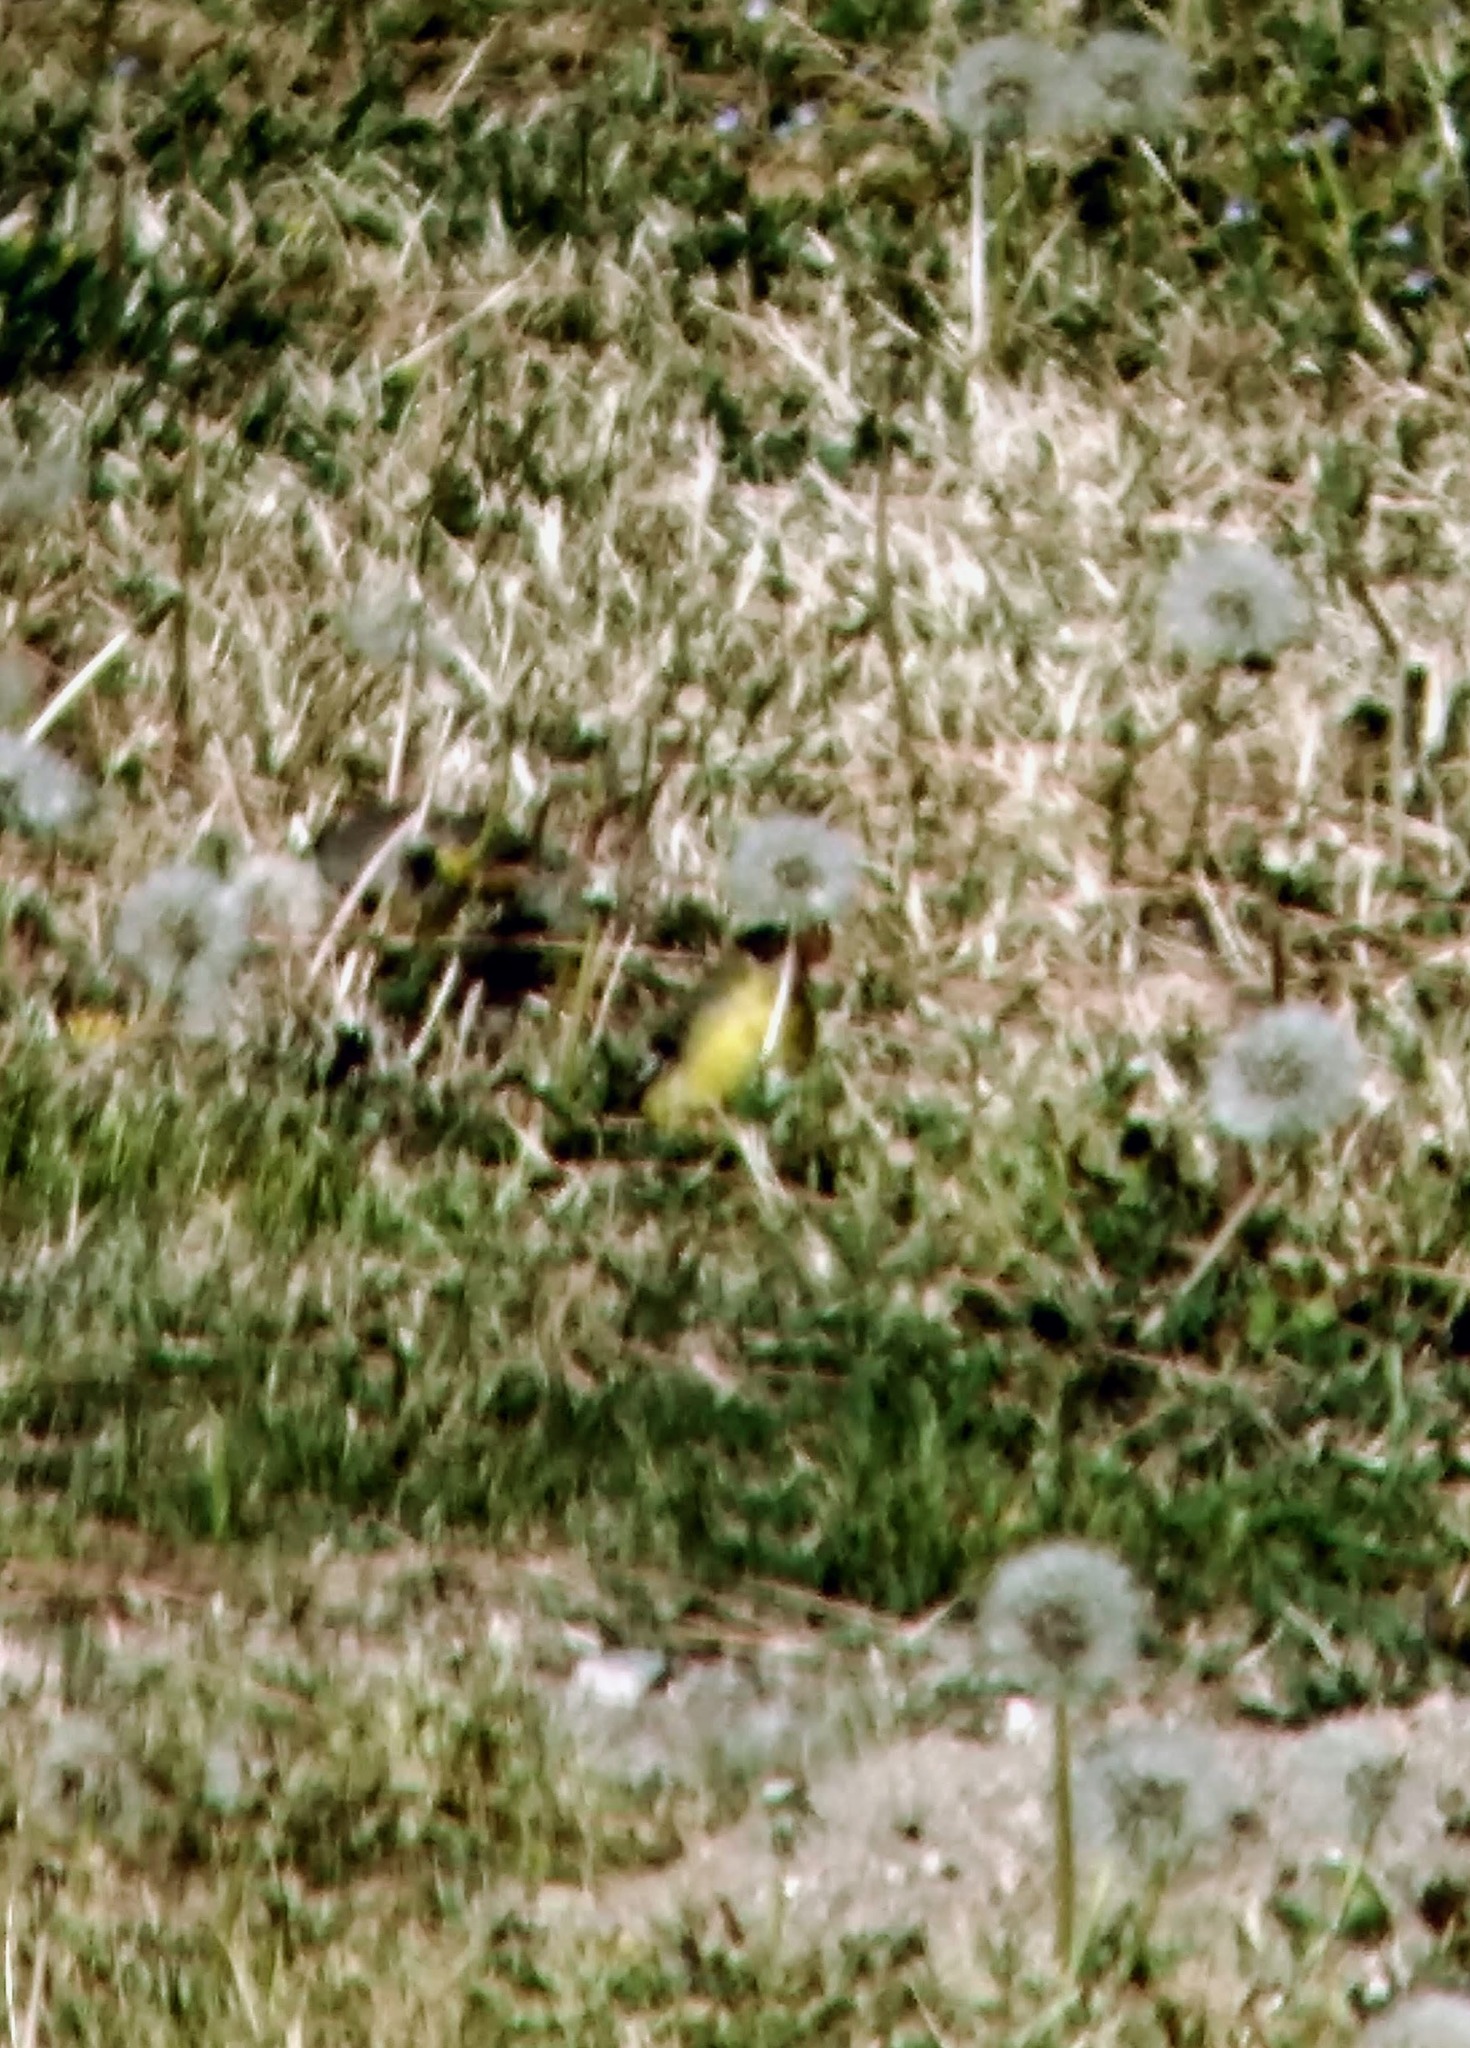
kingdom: Animalia
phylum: Chordata
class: Aves
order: Passeriformes
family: Fringillidae
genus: Spinus
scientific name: Spinus psaltria
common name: Lesser goldfinch
